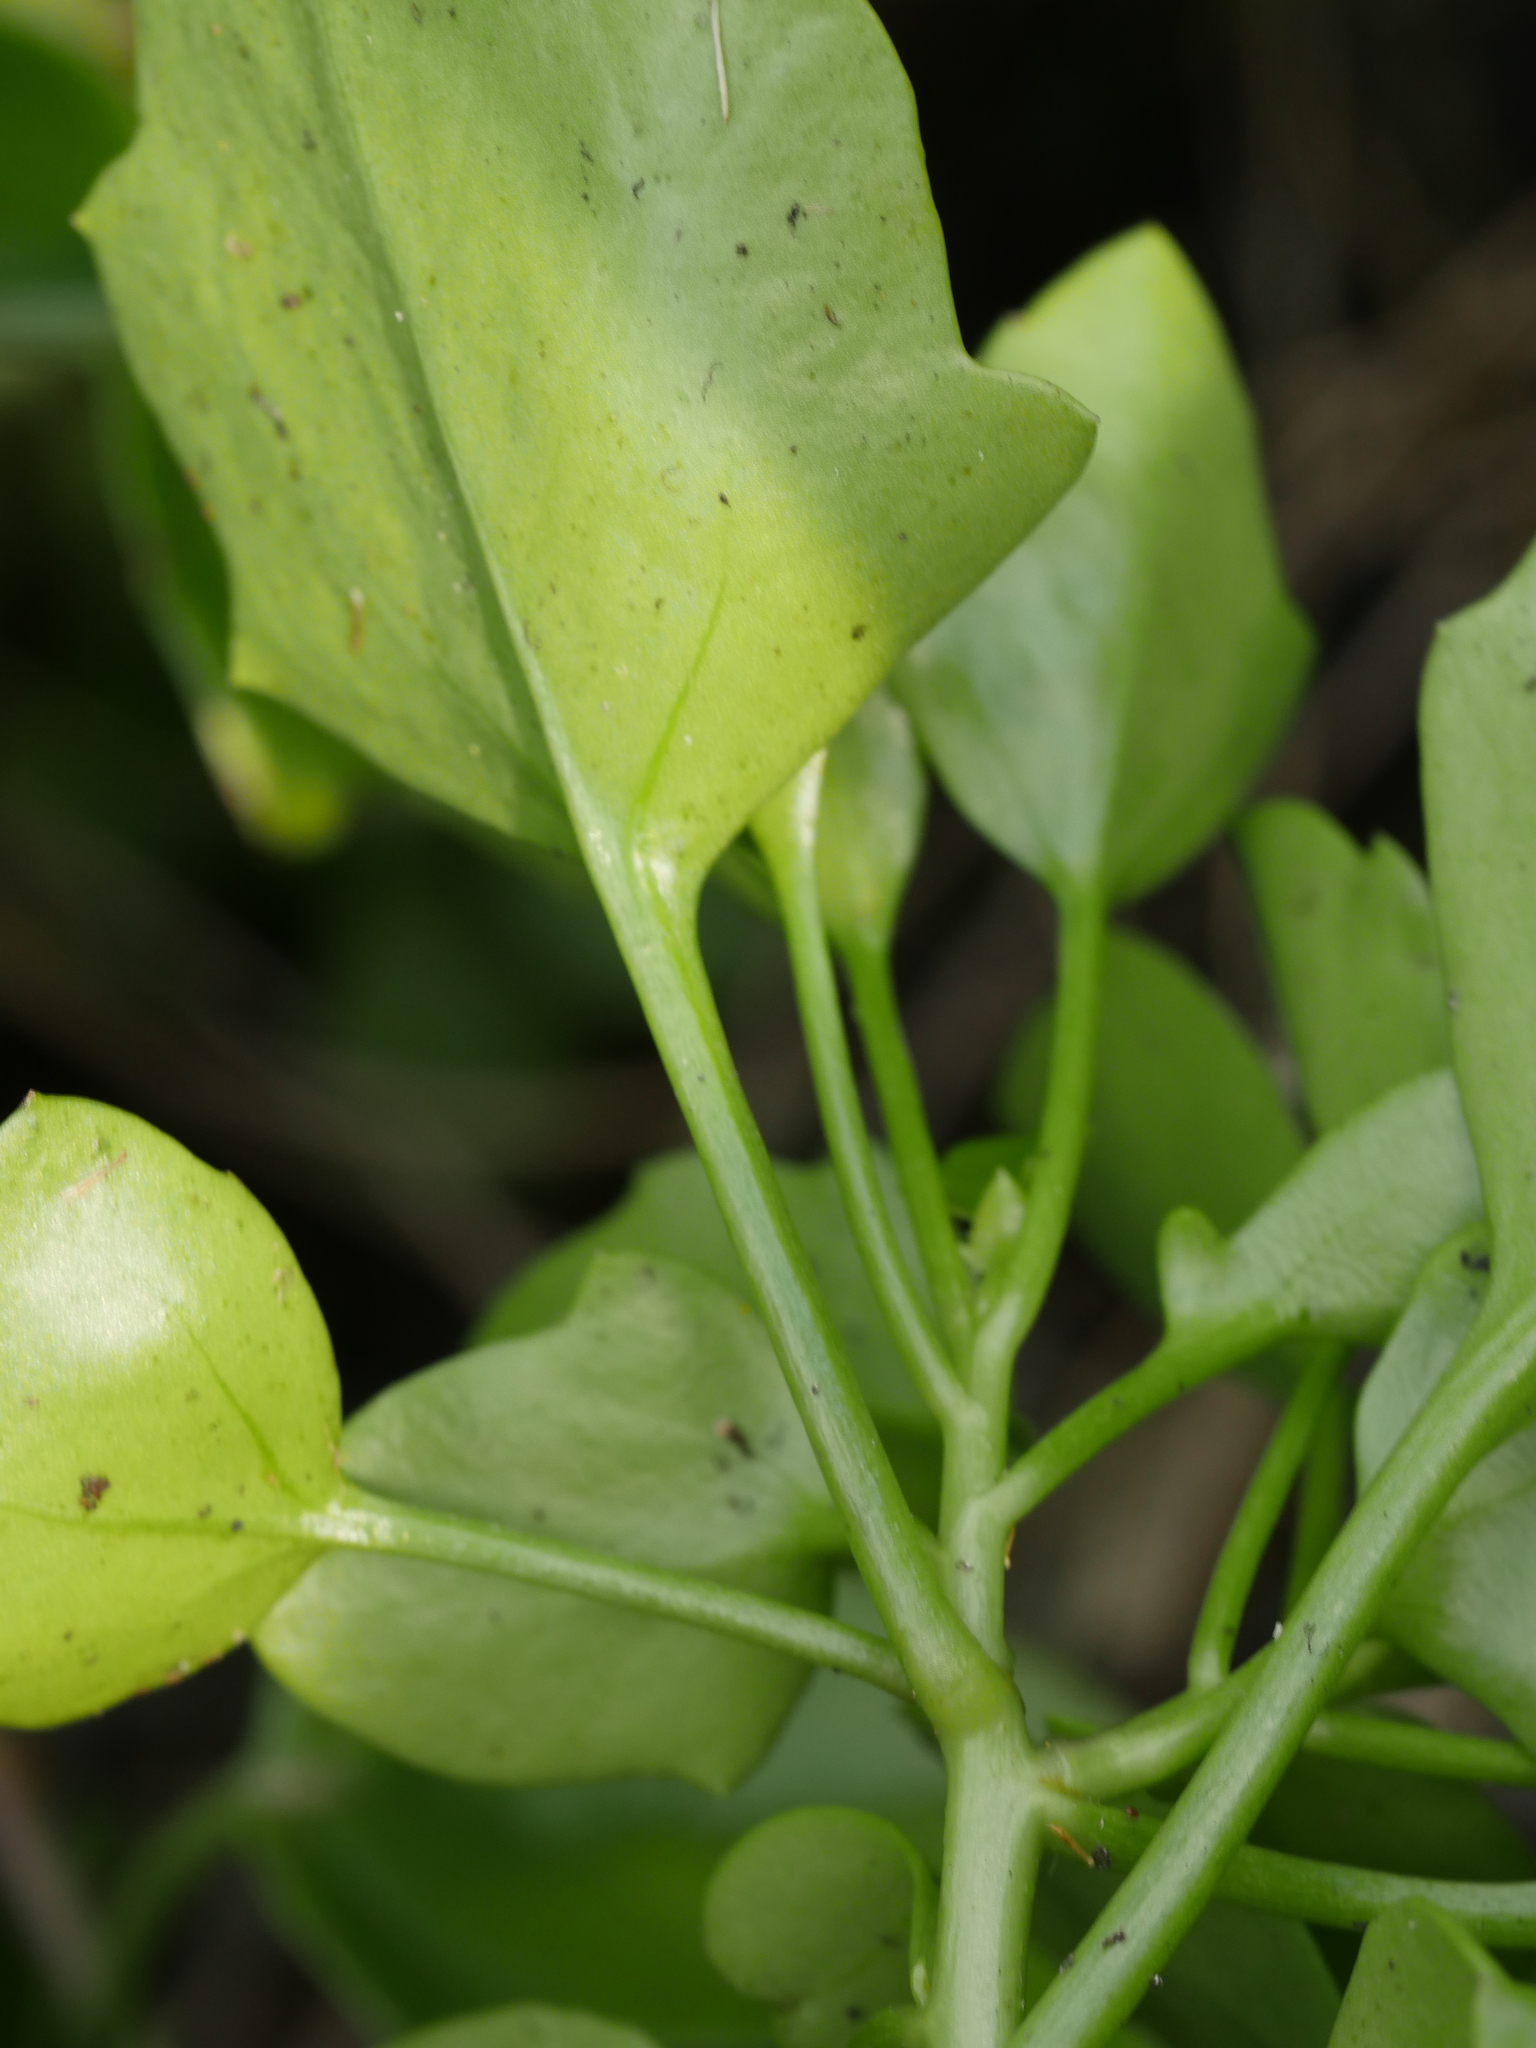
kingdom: Plantae
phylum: Tracheophyta
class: Magnoliopsida
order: Asterales
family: Asteraceae
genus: Senecio
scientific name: Senecio angulatus
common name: Climbing groundsel
